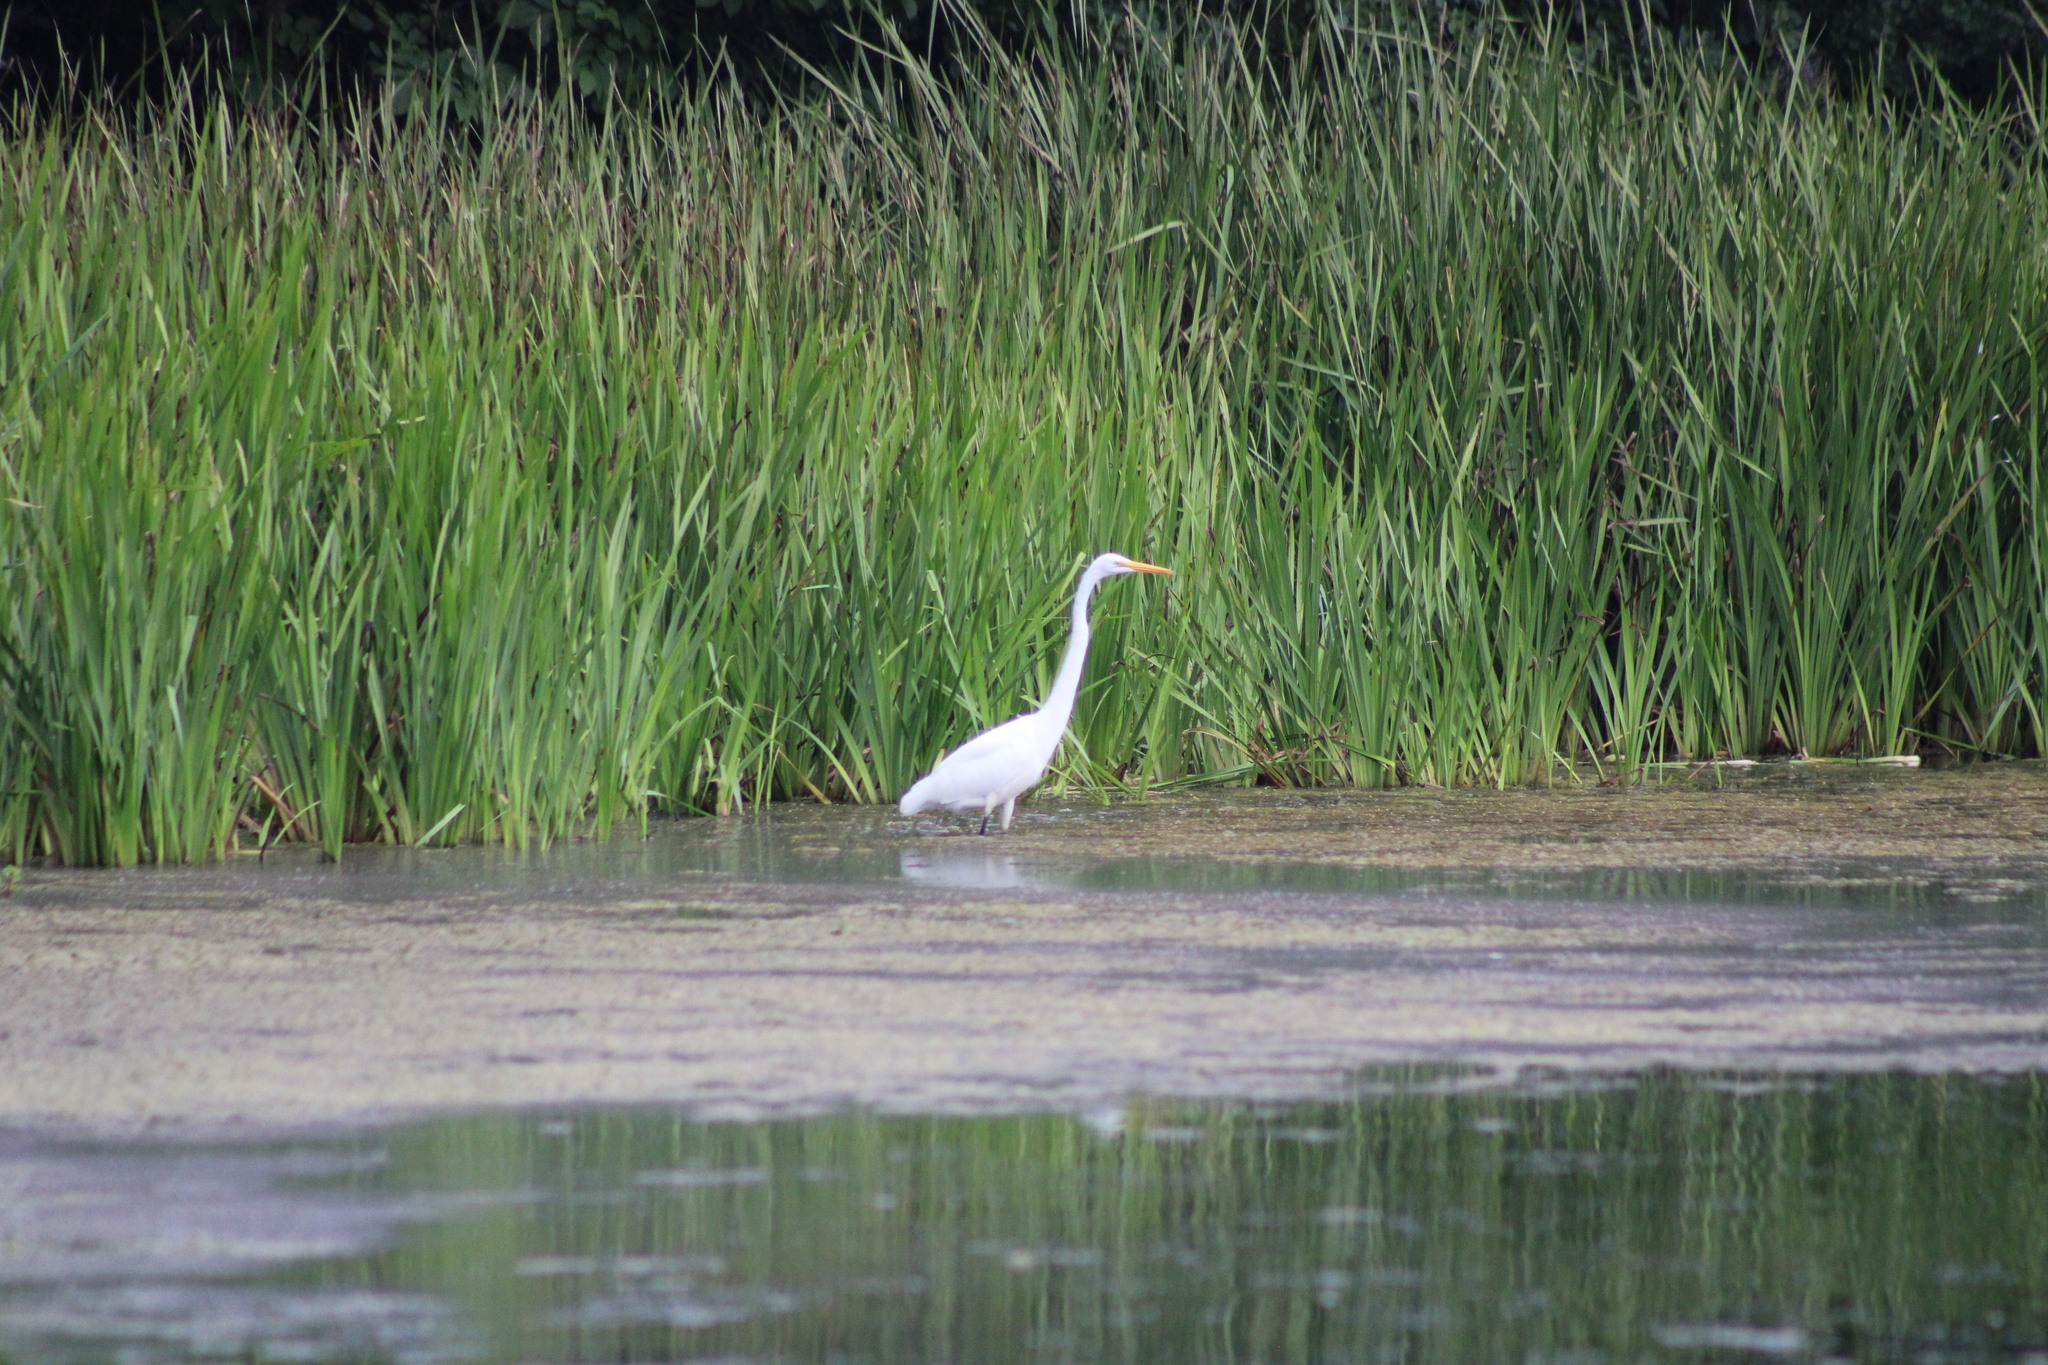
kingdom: Animalia
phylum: Chordata
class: Aves
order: Pelecaniformes
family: Ardeidae
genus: Ardea
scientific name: Ardea alba
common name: Great egret
